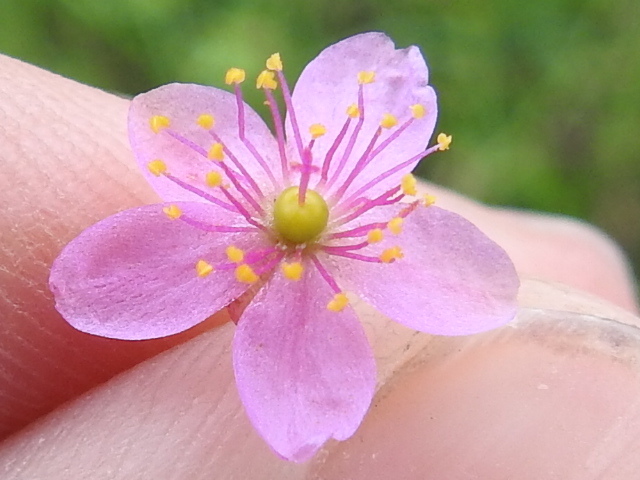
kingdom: Plantae
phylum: Tracheophyta
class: Magnoliopsida
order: Caryophyllales
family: Talinaceae
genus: Talinum
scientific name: Talinum paniculatum
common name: Jewels of opar
